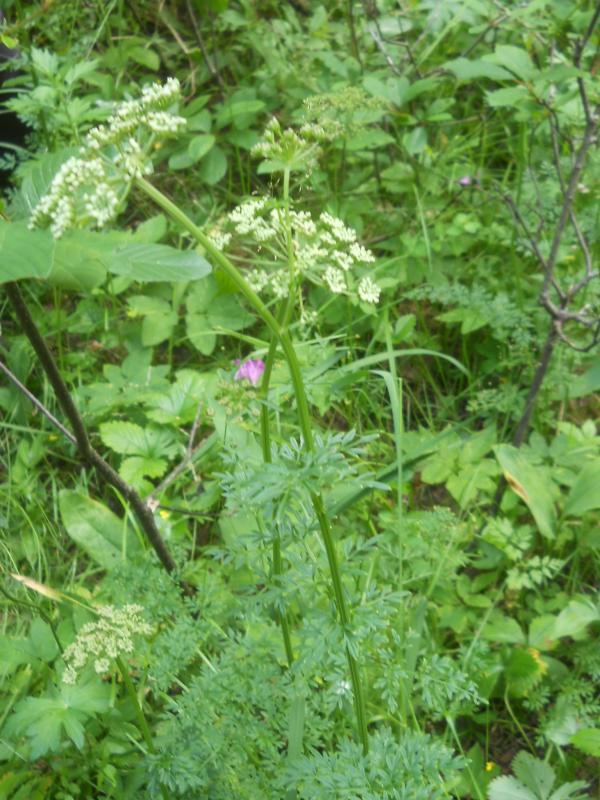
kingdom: Plantae
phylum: Tracheophyta
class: Magnoliopsida
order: Apiales
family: Apiaceae
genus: Selinum
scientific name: Selinum carvifolia
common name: Cambridge milk-parsley
